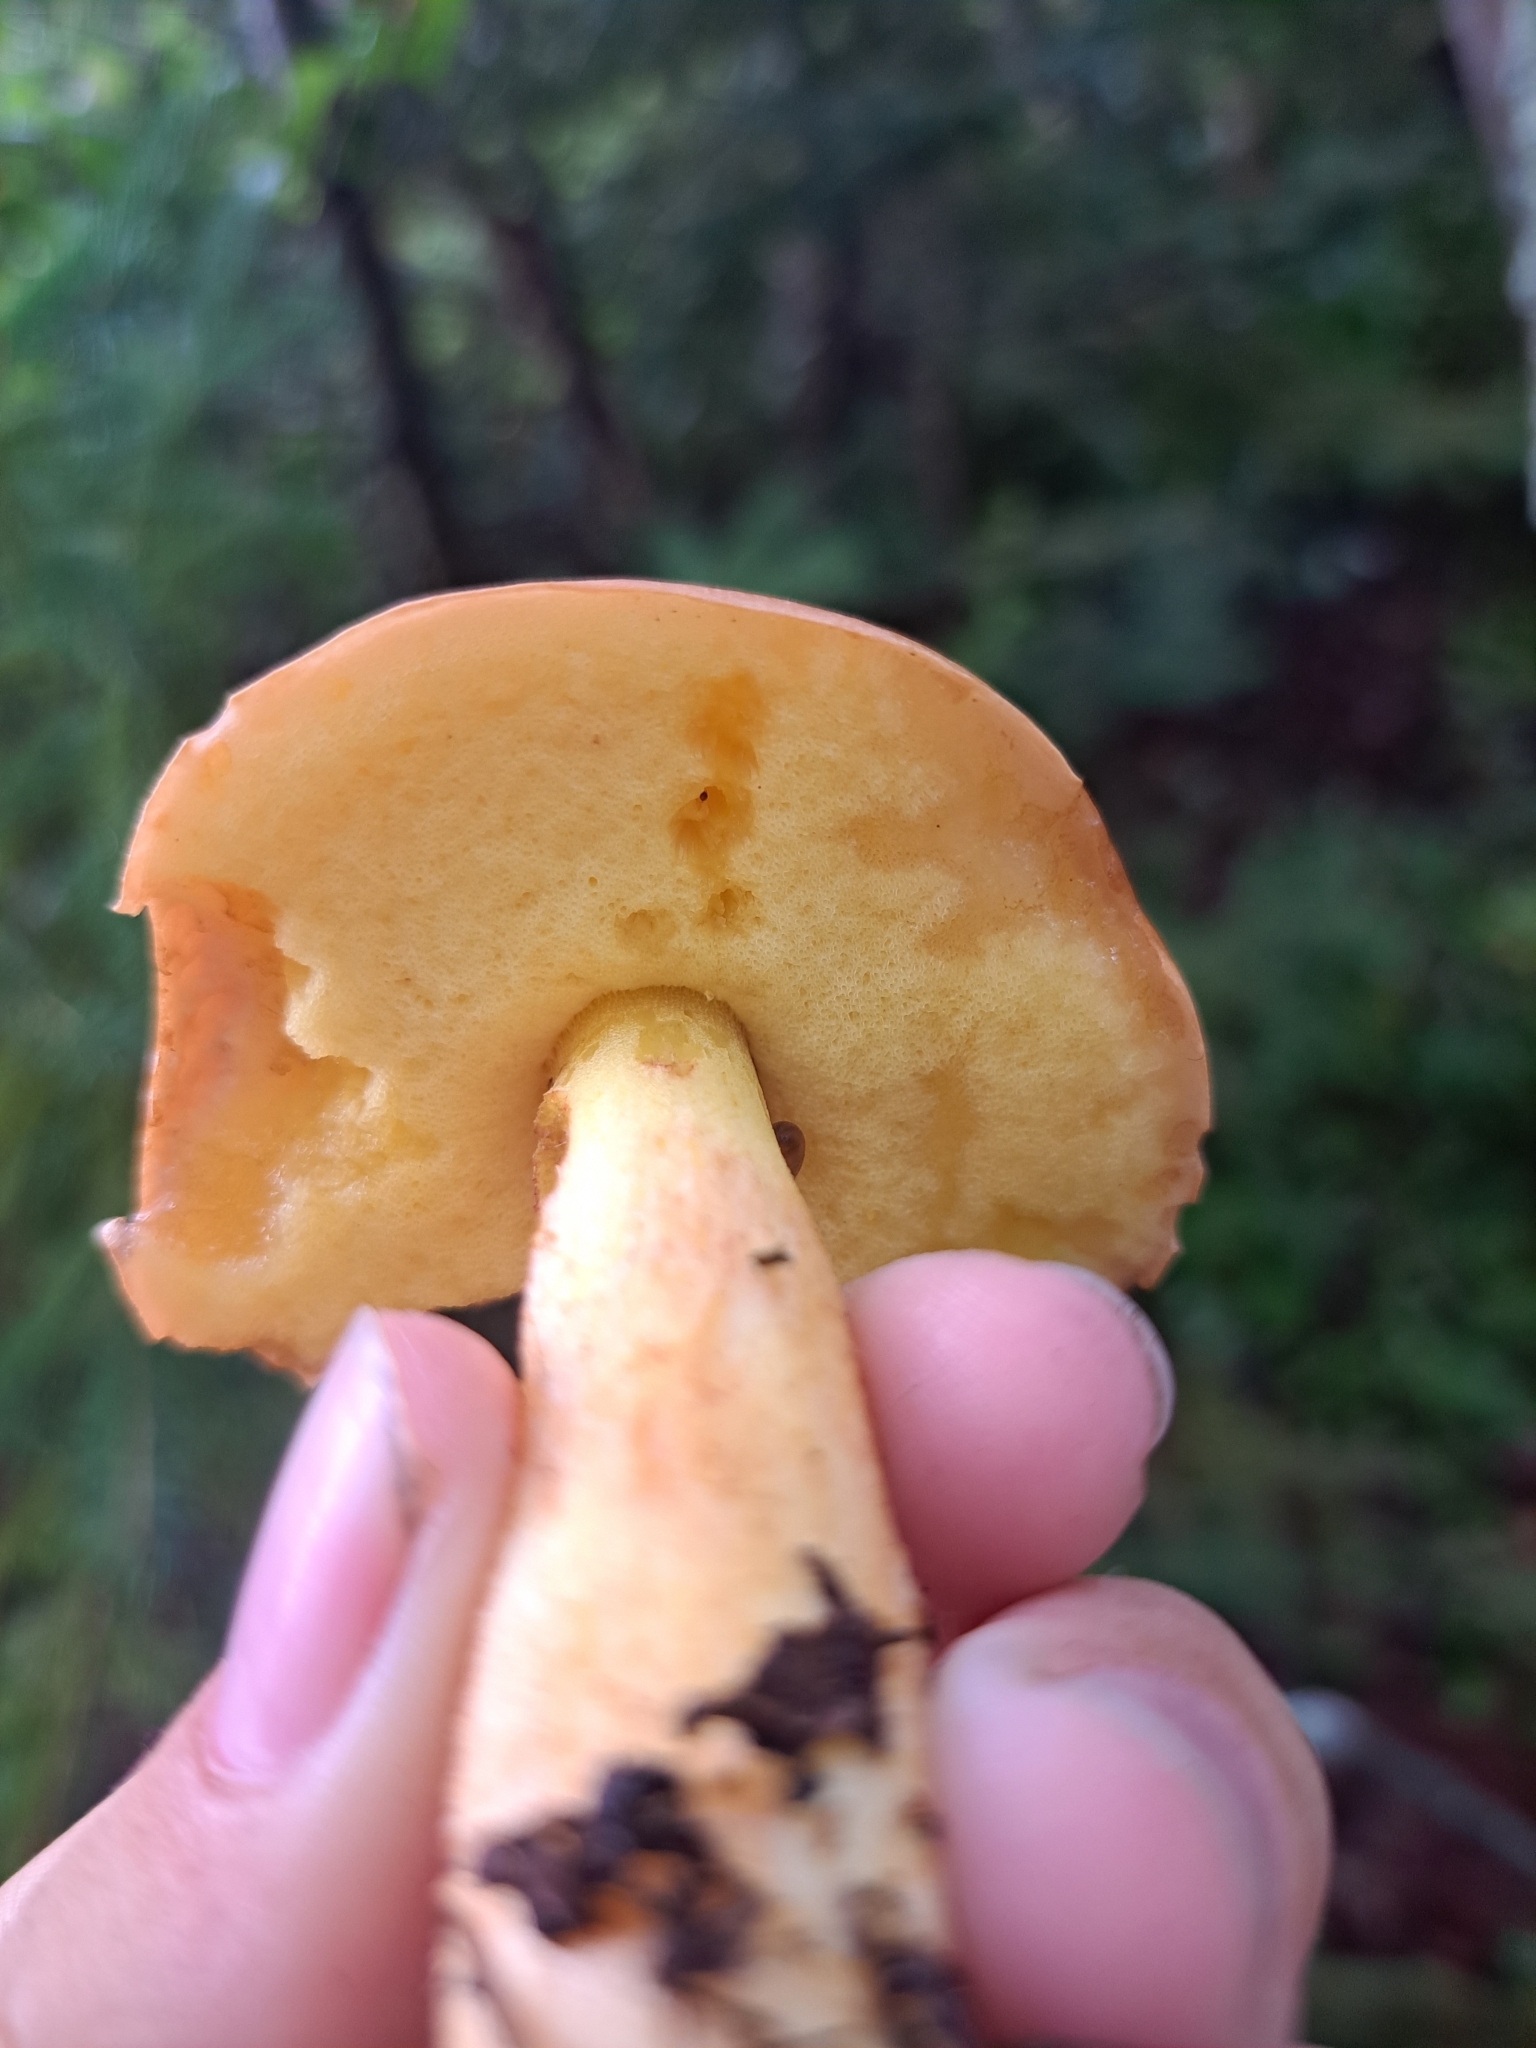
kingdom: Fungi
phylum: Basidiomycota
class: Agaricomycetes
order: Boletales
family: Boletaceae
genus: Hemileccinum
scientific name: Hemileccinum subglabripes
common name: Smoothish-stemmed bolete
